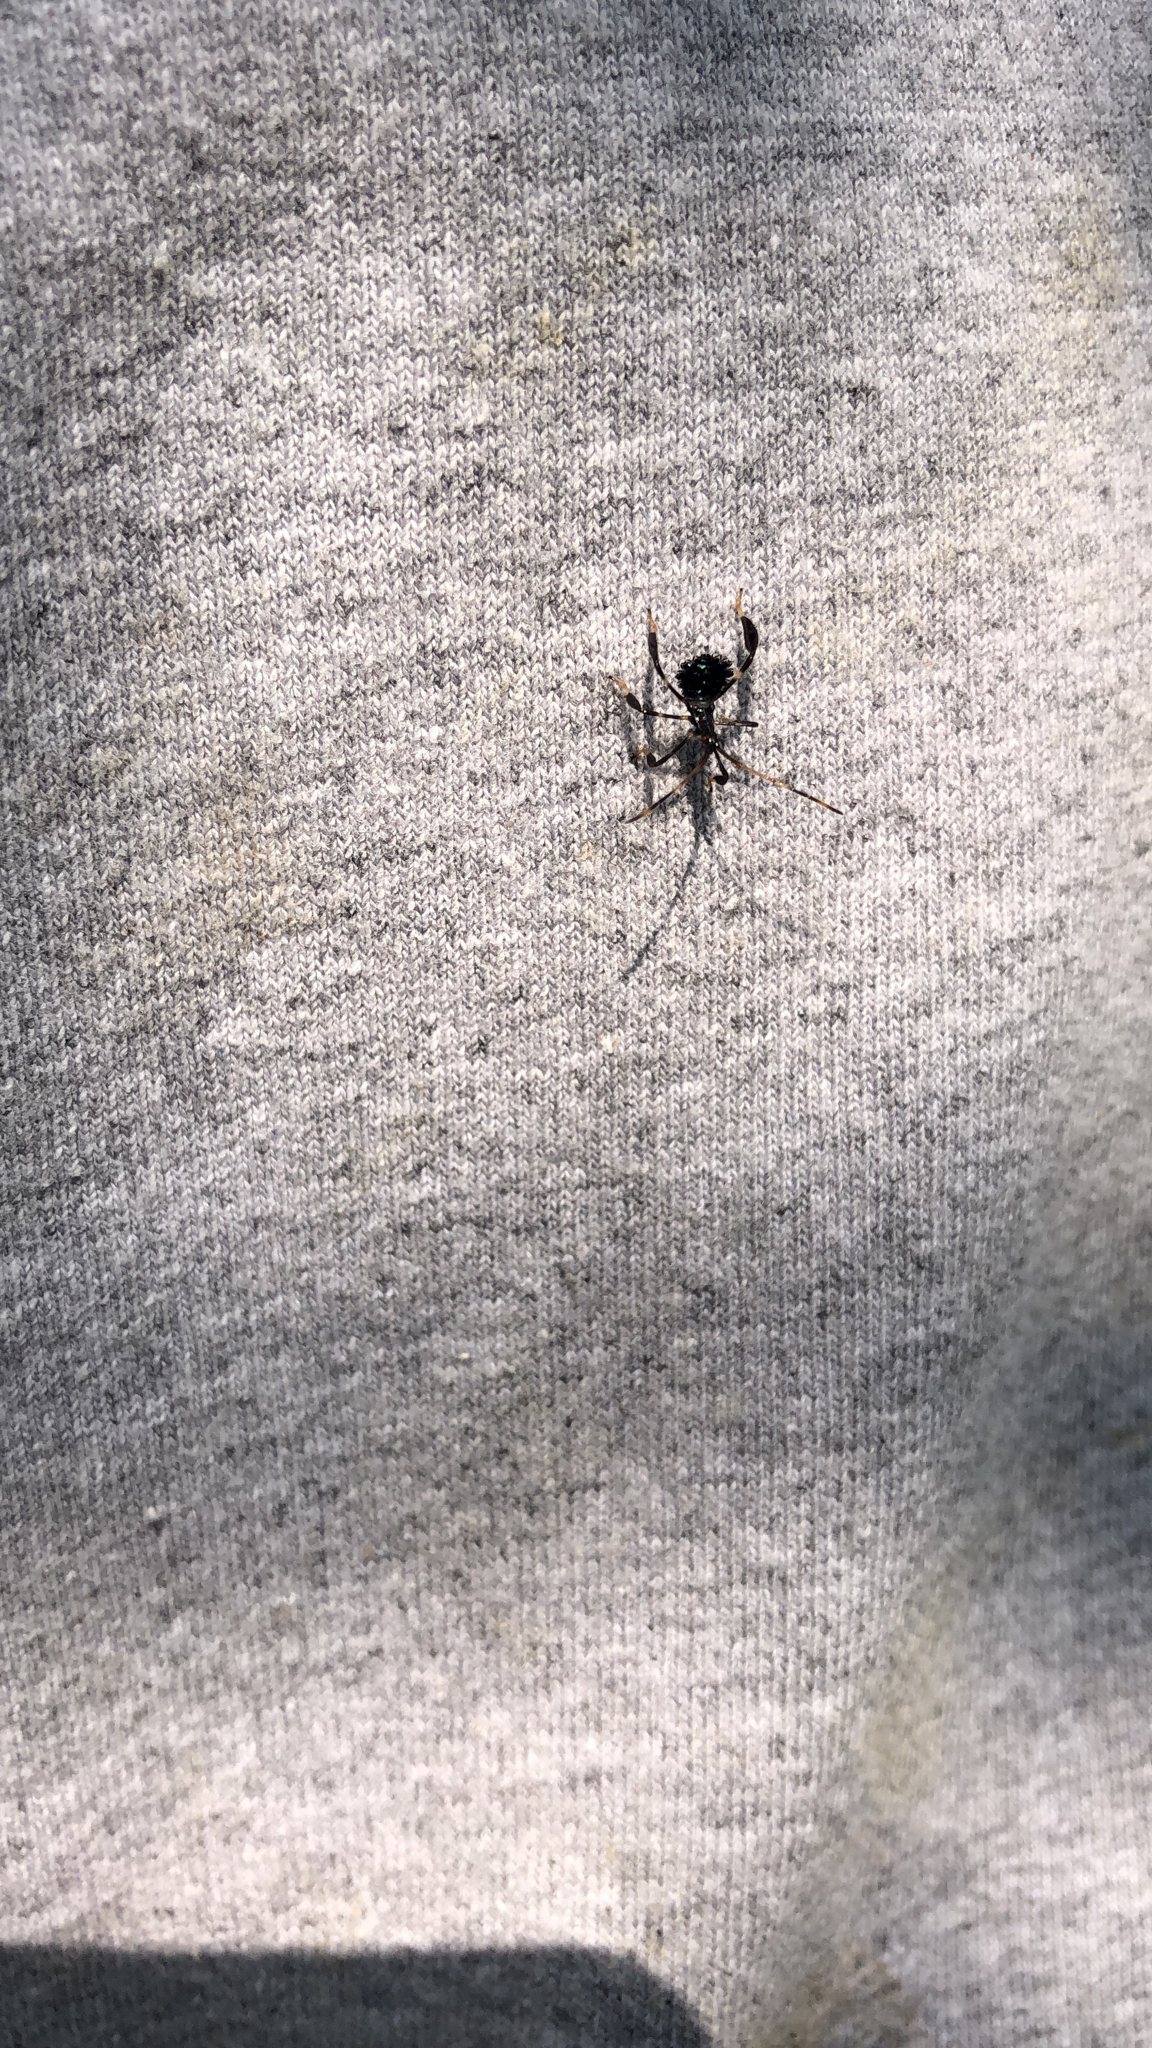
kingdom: Animalia
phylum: Arthropoda
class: Insecta
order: Hemiptera
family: Coreidae
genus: Acanthocephala
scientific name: Acanthocephala terminalis
